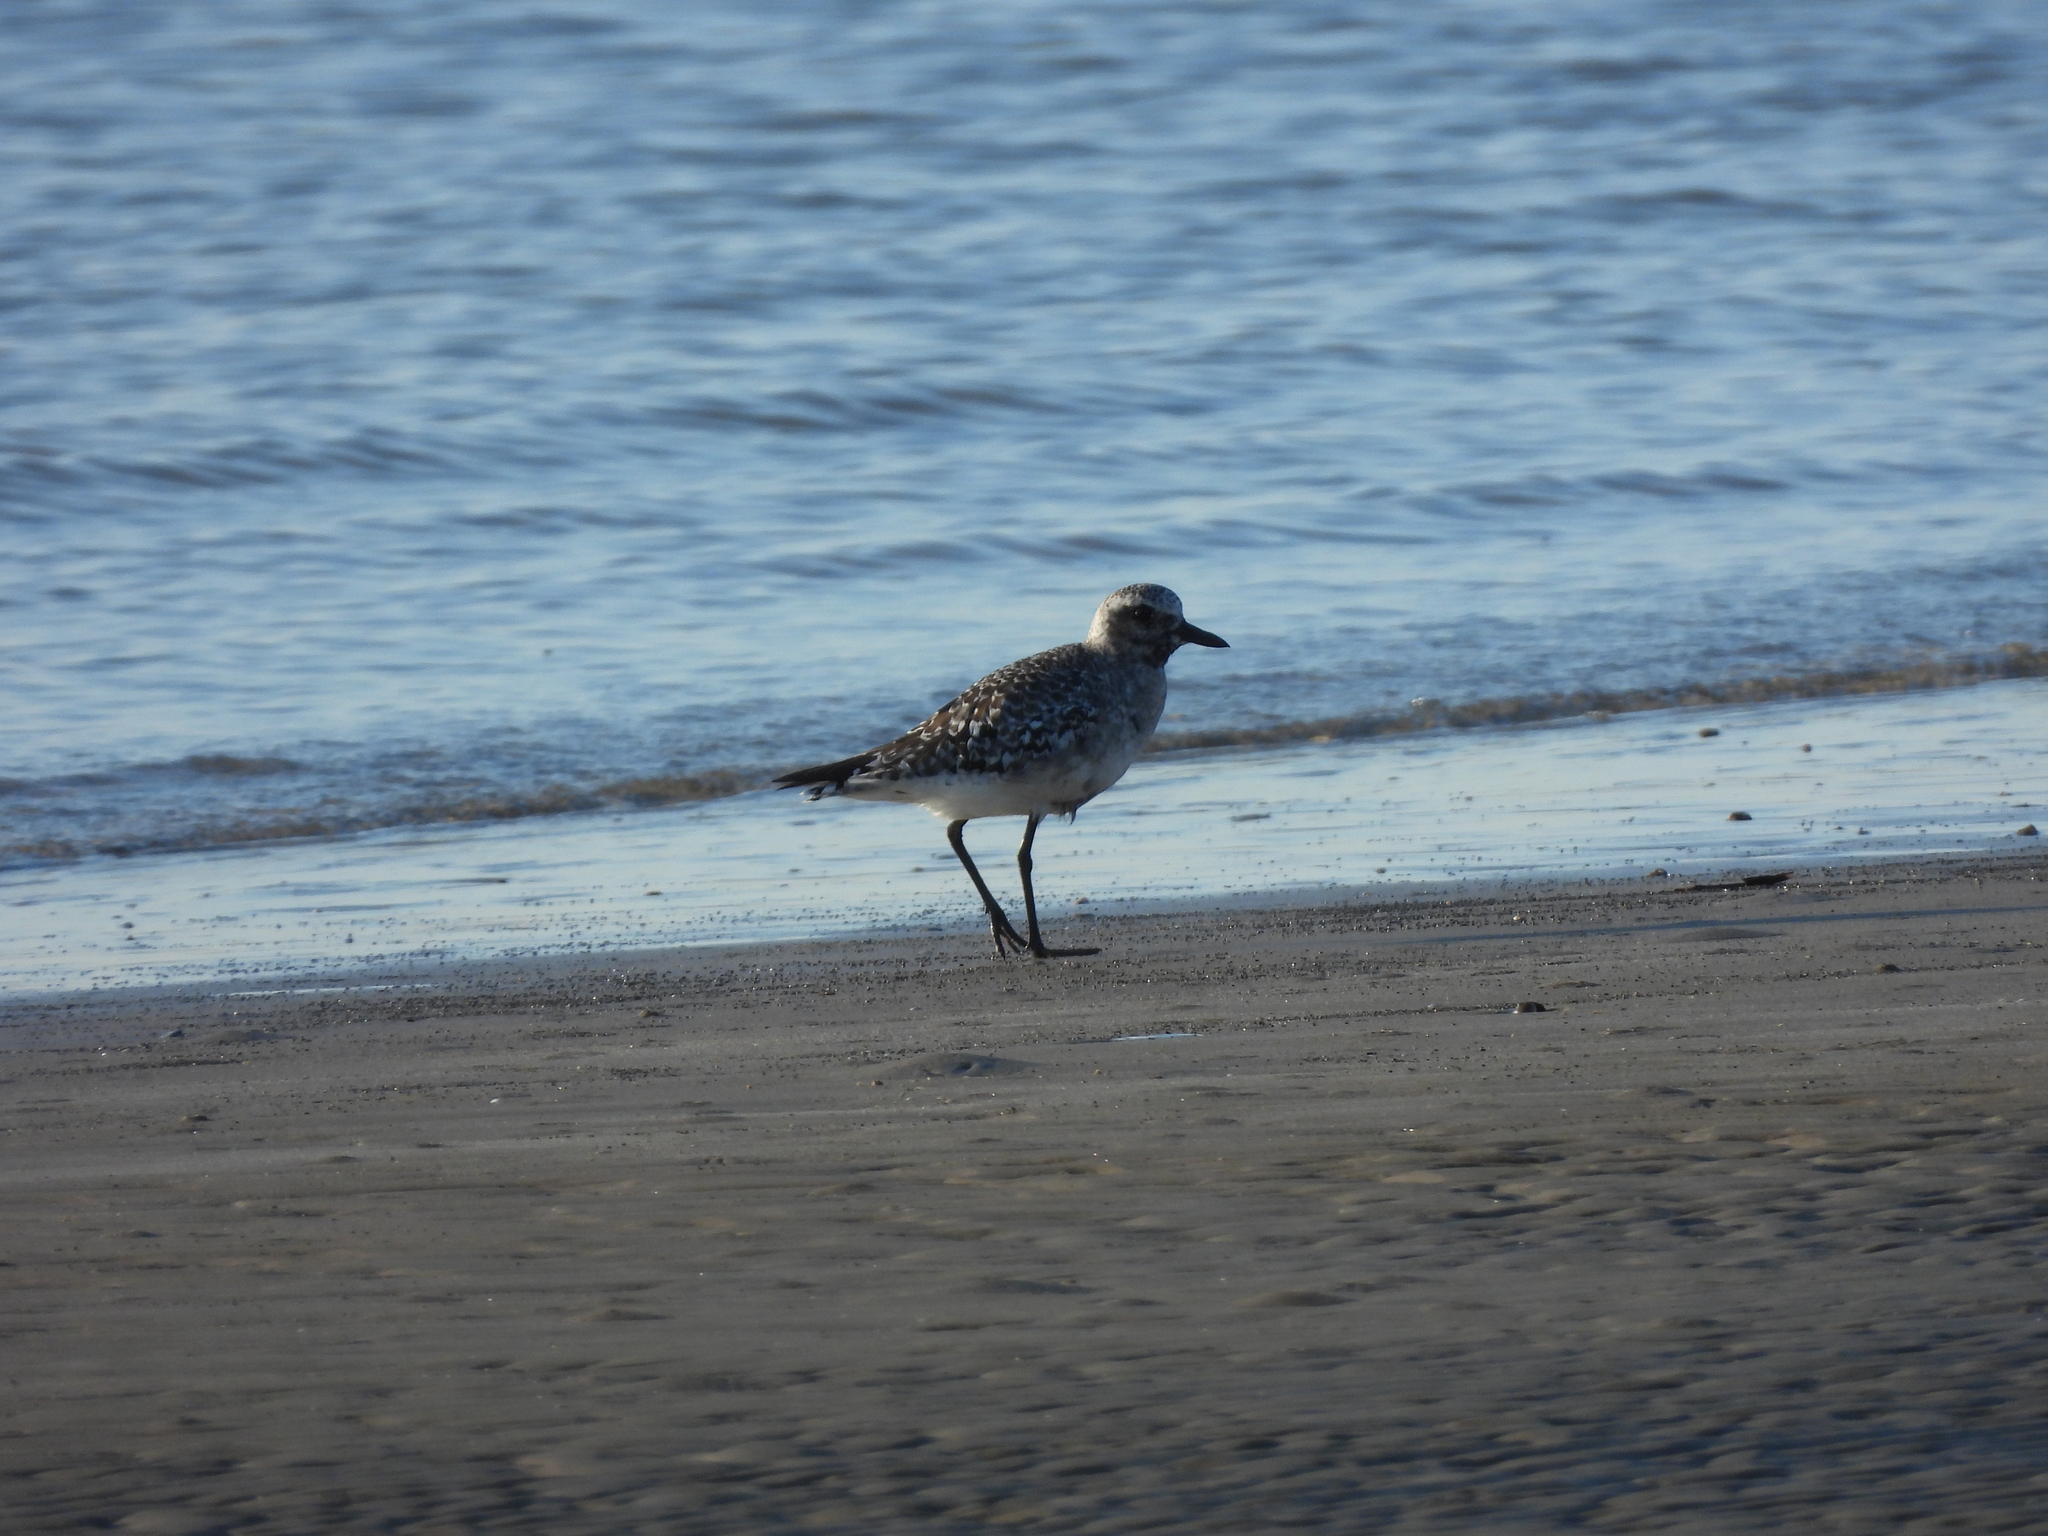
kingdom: Animalia
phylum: Chordata
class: Aves
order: Charadriiformes
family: Charadriidae
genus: Pluvialis
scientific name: Pluvialis squatarola
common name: Grey plover
